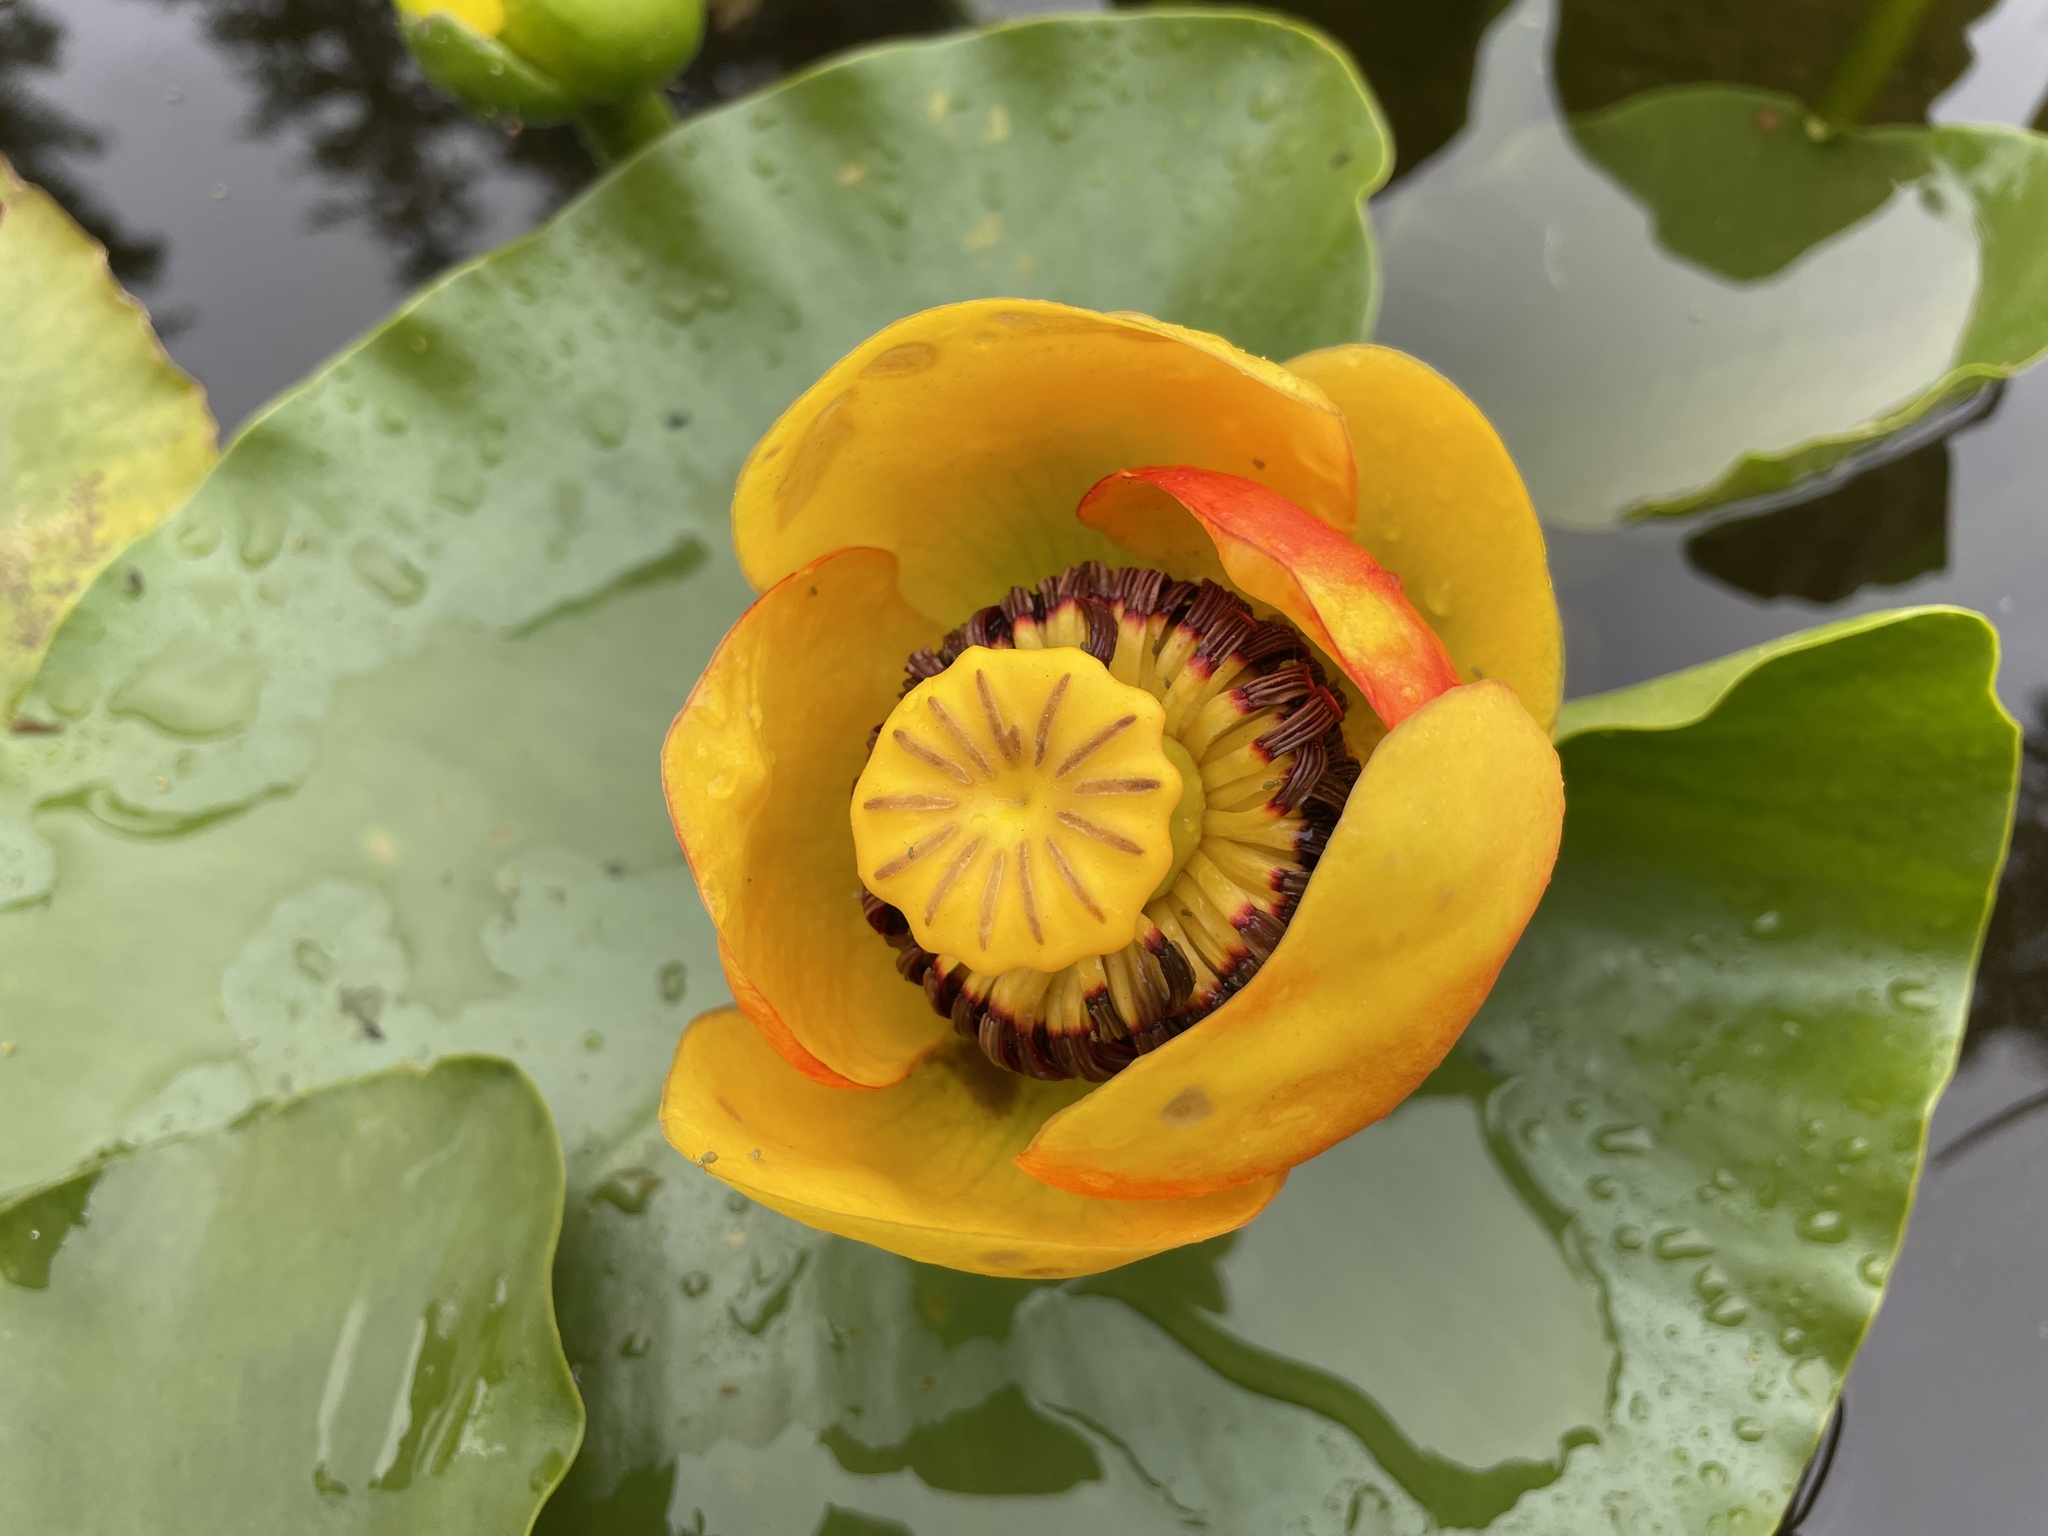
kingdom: Plantae
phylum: Tracheophyta
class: Magnoliopsida
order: Nymphaeales
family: Nymphaeaceae
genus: Nuphar
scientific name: Nuphar polysepala
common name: Rocky mountain cow-lily
